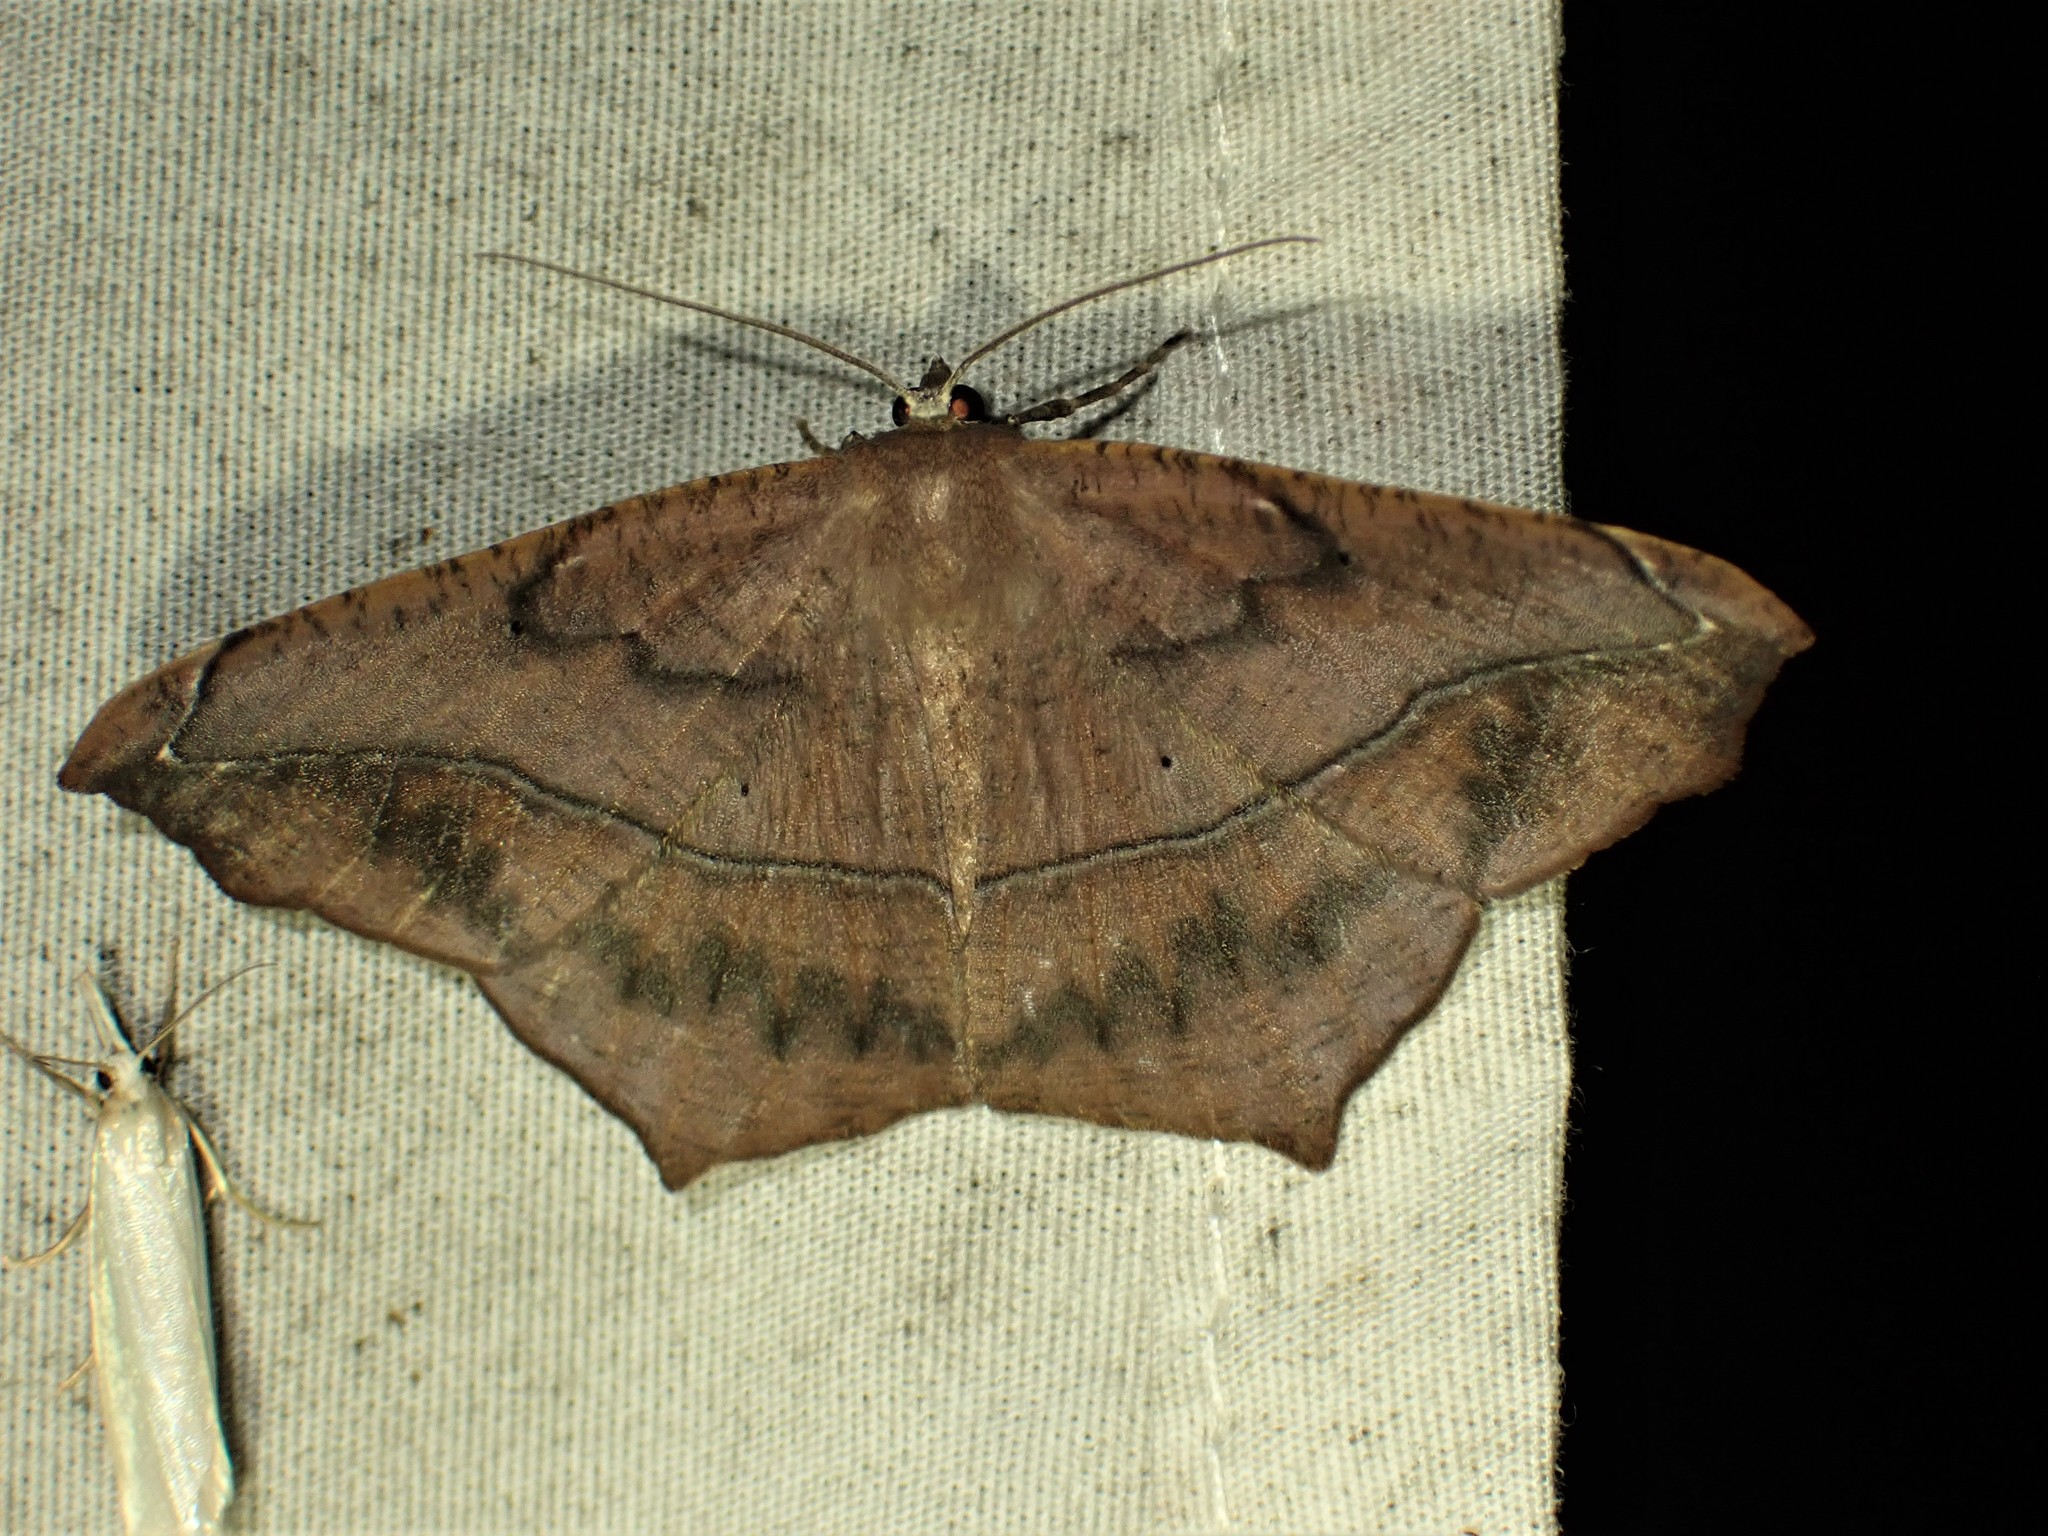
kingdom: Animalia
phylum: Arthropoda
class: Insecta
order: Lepidoptera
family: Geometridae
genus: Prochoerodes
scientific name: Prochoerodes lineola
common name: Large maple spanworm
